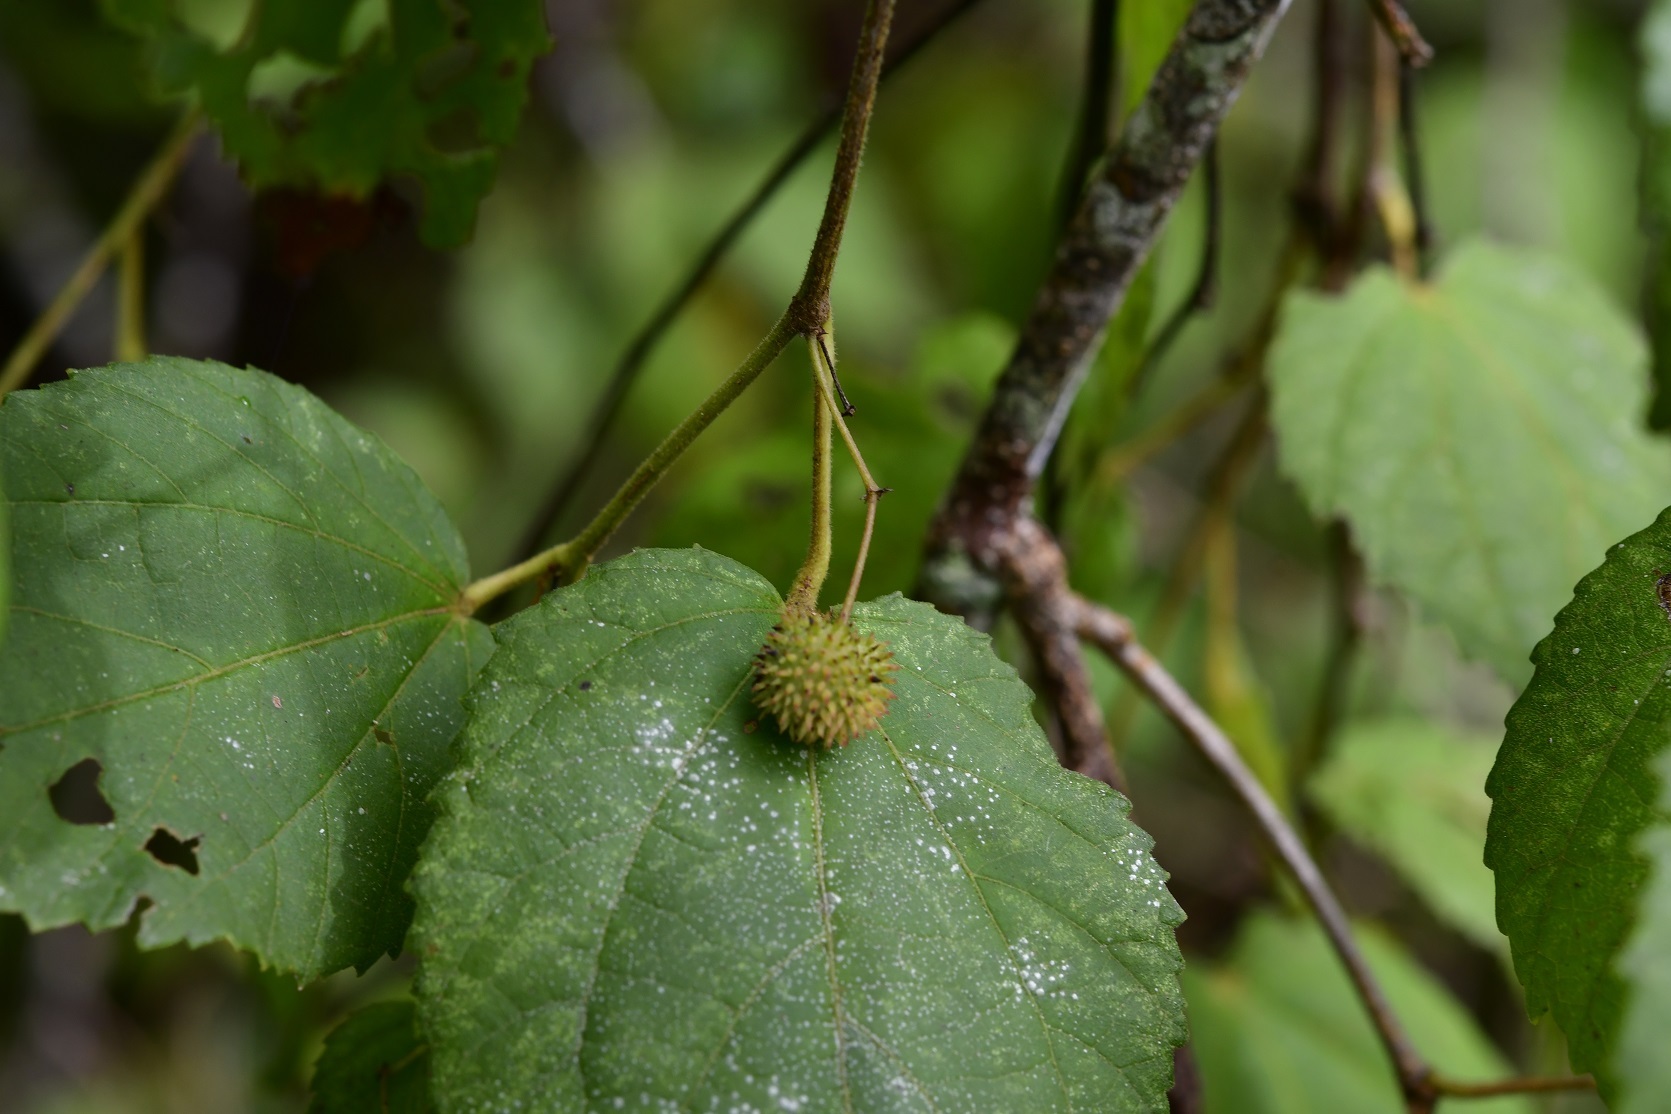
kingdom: Plantae
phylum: Tracheophyta
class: Magnoliopsida
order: Malvales
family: Malvaceae
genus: Ayenia
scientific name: Ayenia micrantha
